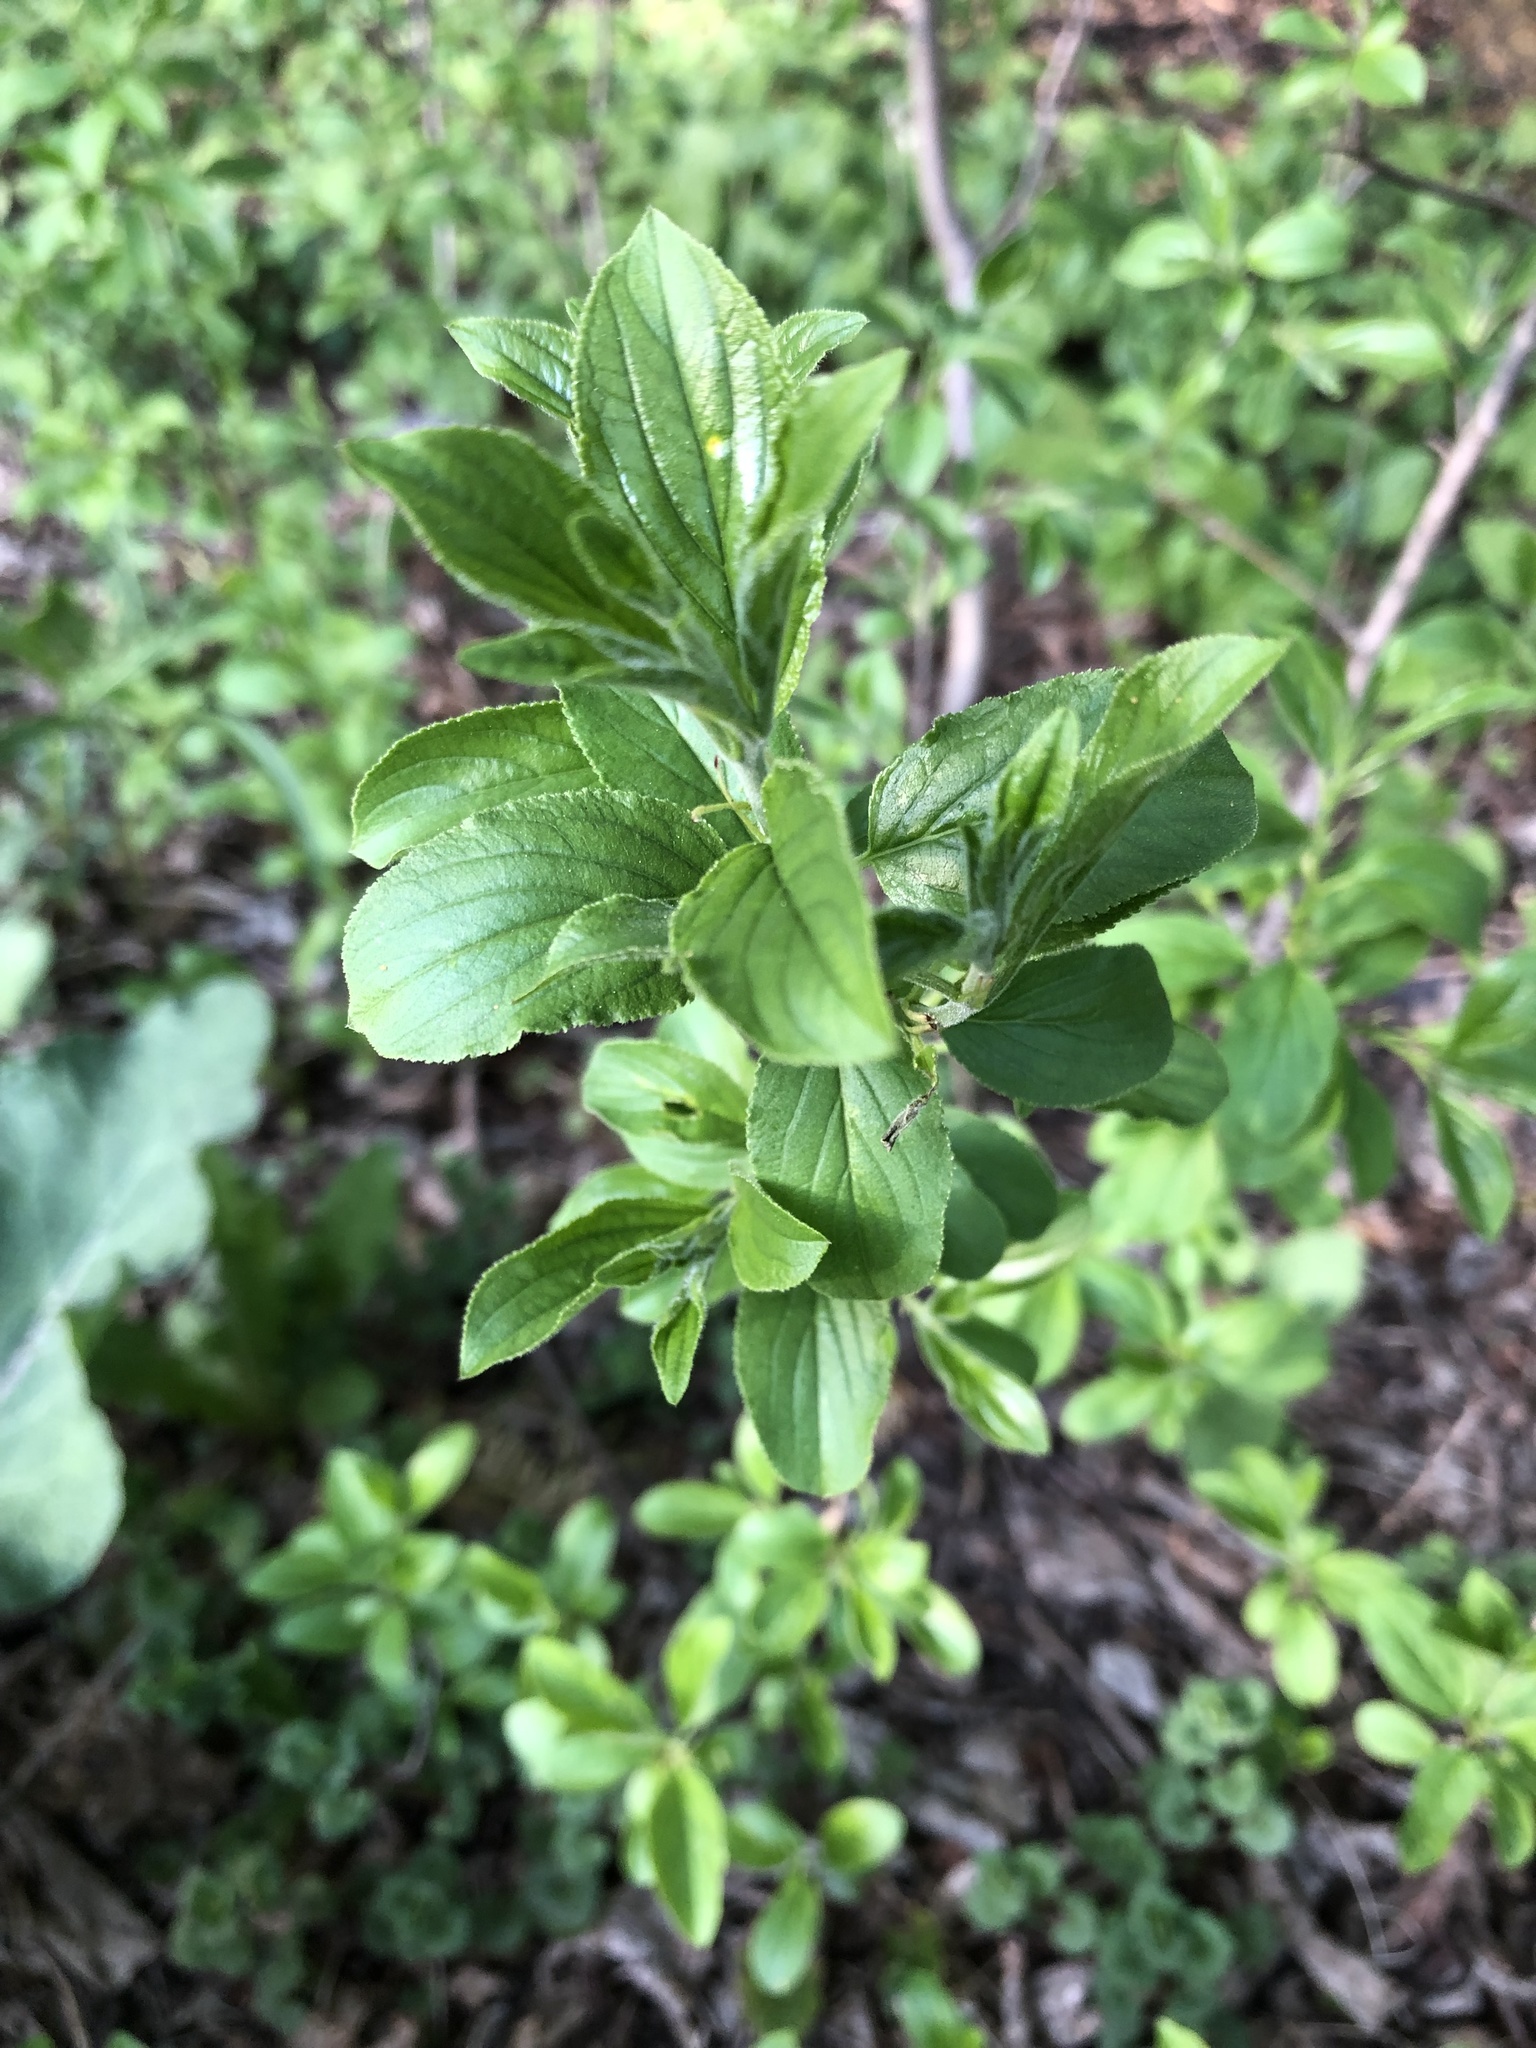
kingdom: Plantae
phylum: Tracheophyta
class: Magnoliopsida
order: Rosales
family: Rhamnaceae
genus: Rhamnus
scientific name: Rhamnus cathartica
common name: Common buckthorn
